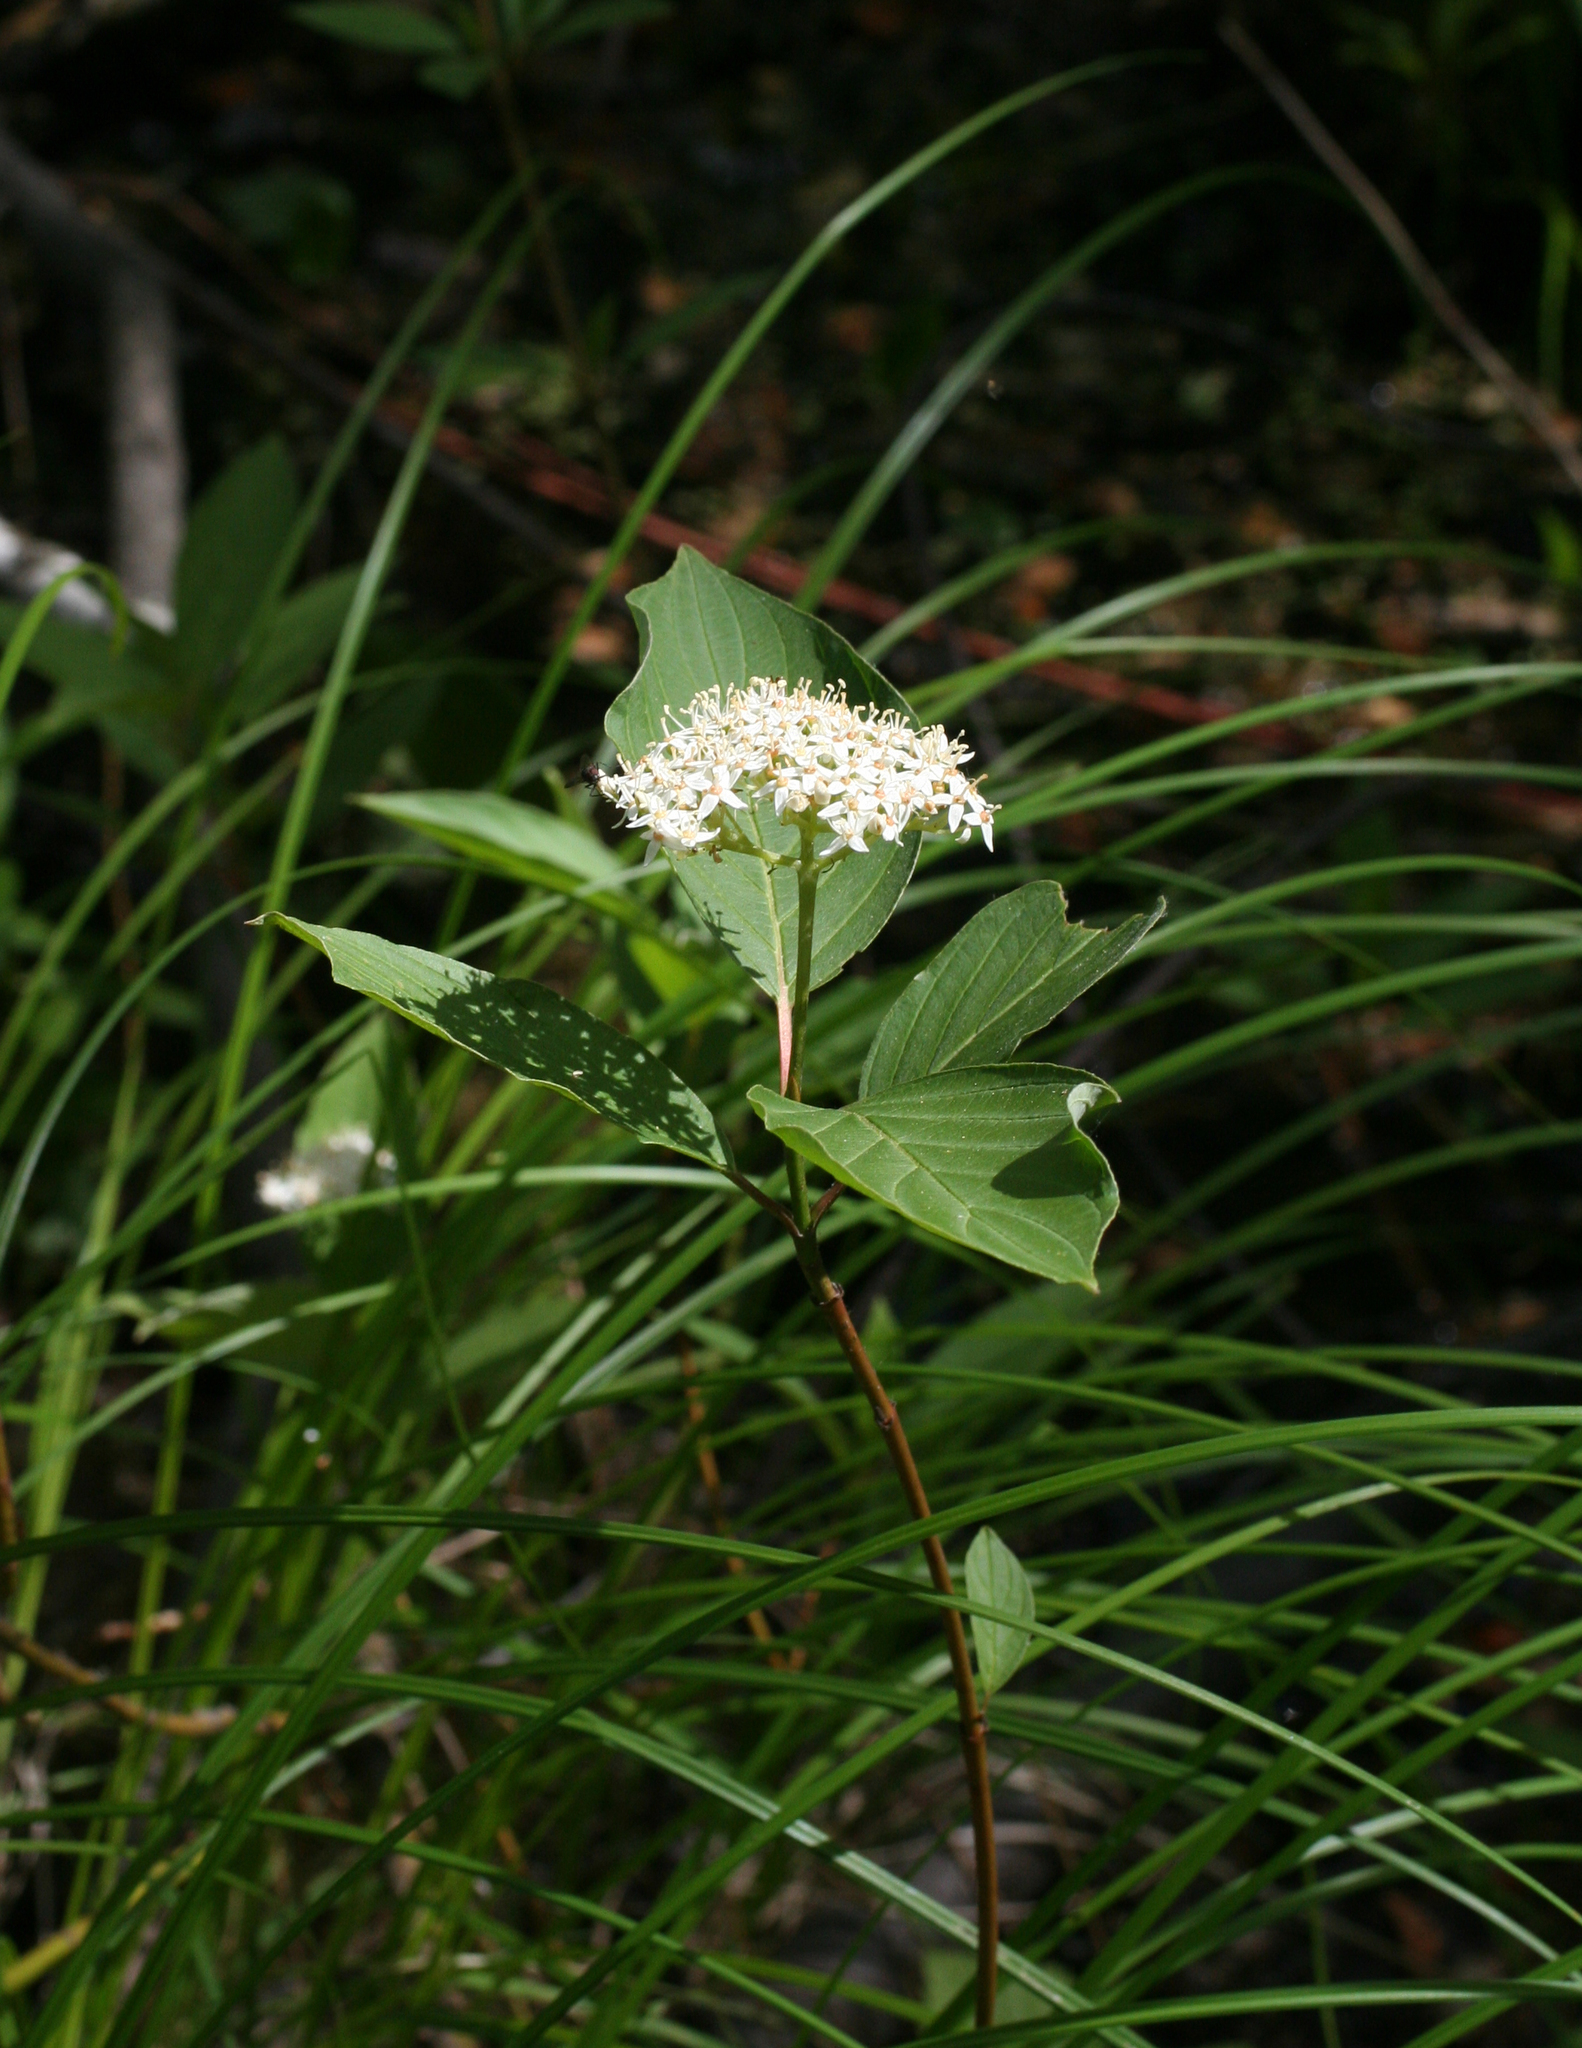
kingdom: Plantae
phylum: Tracheophyta
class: Magnoliopsida
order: Cornales
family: Cornaceae
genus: Cornus
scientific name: Cornus alba
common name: White dogwood
